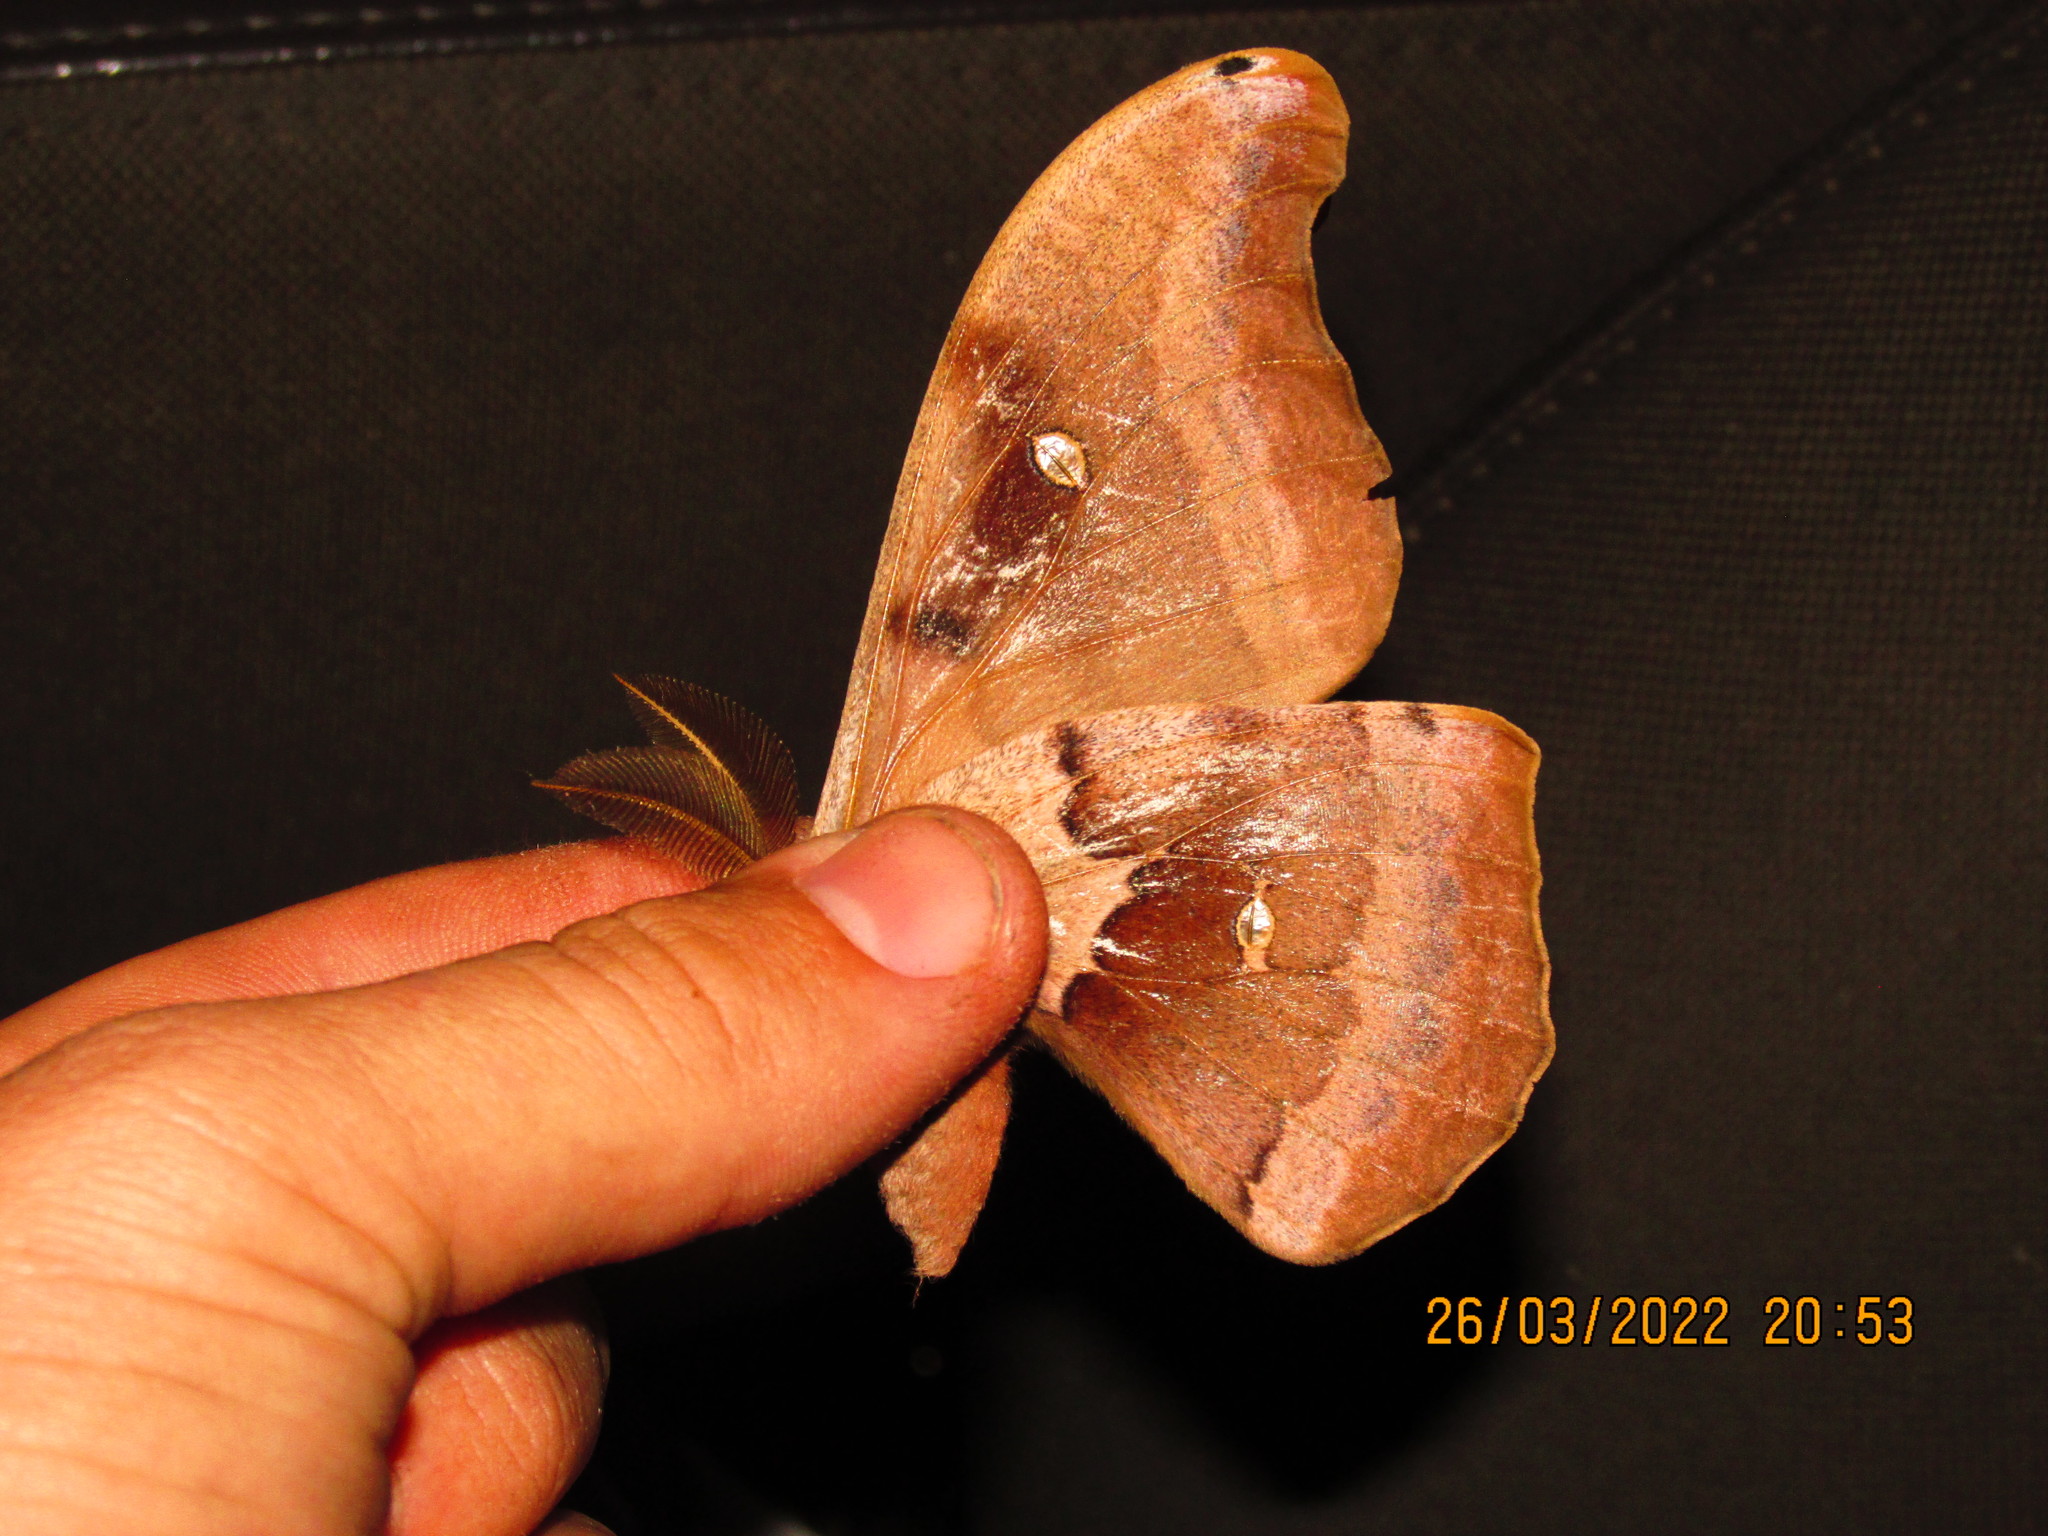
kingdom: Animalia
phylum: Arthropoda
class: Insecta
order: Lepidoptera
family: Saturniidae
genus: Antheraea
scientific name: Antheraea polyphemus
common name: Polyphemus moth
